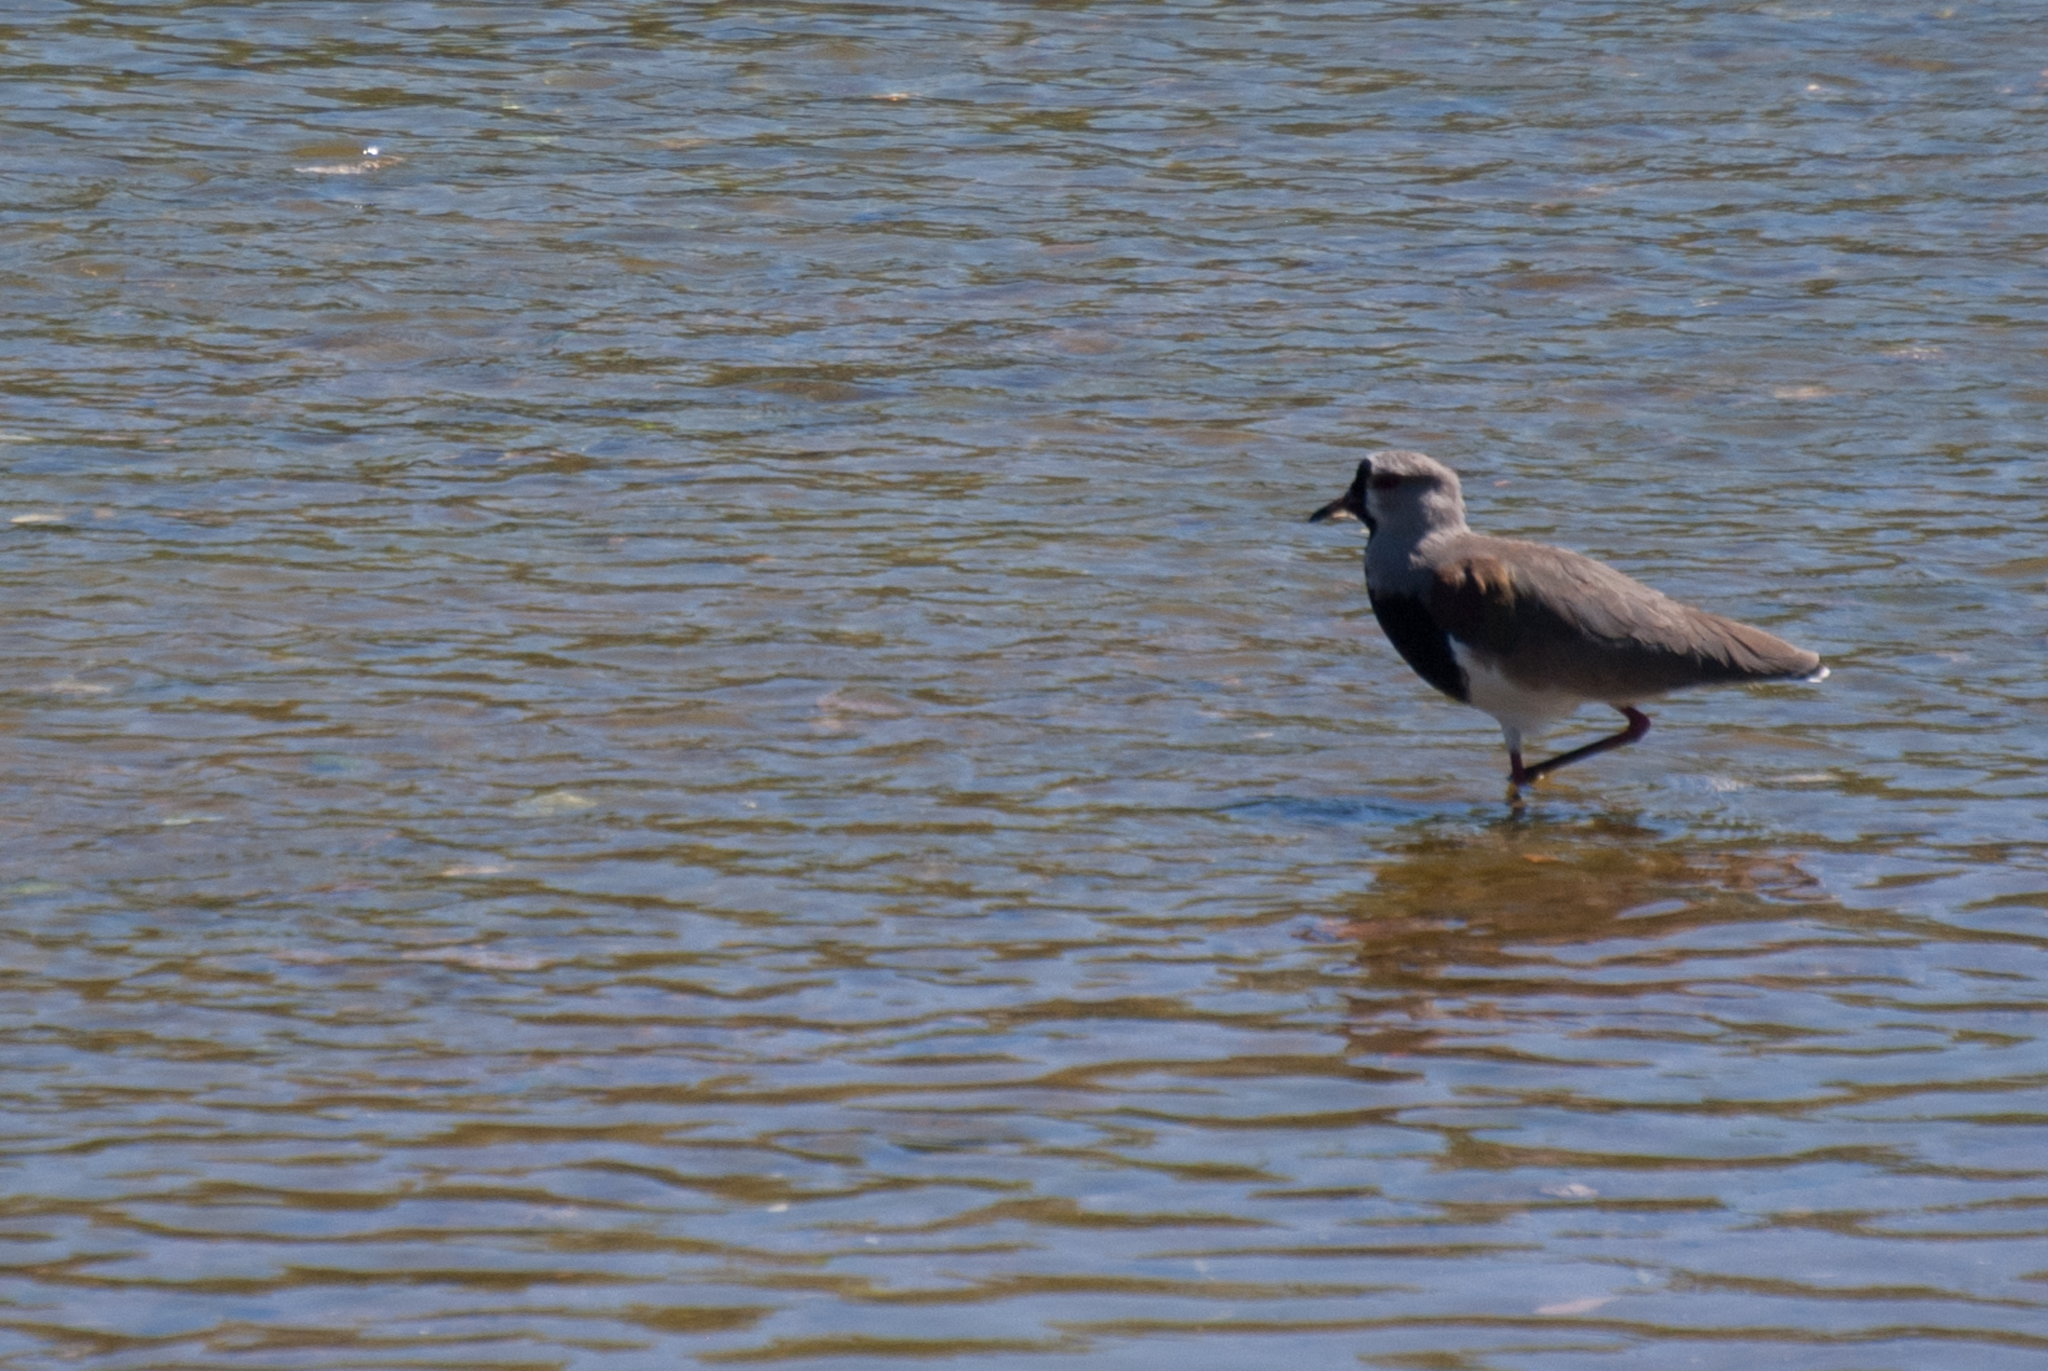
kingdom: Animalia
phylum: Chordata
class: Aves
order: Charadriiformes
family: Charadriidae
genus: Vanellus
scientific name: Vanellus chilensis
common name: Southern lapwing
